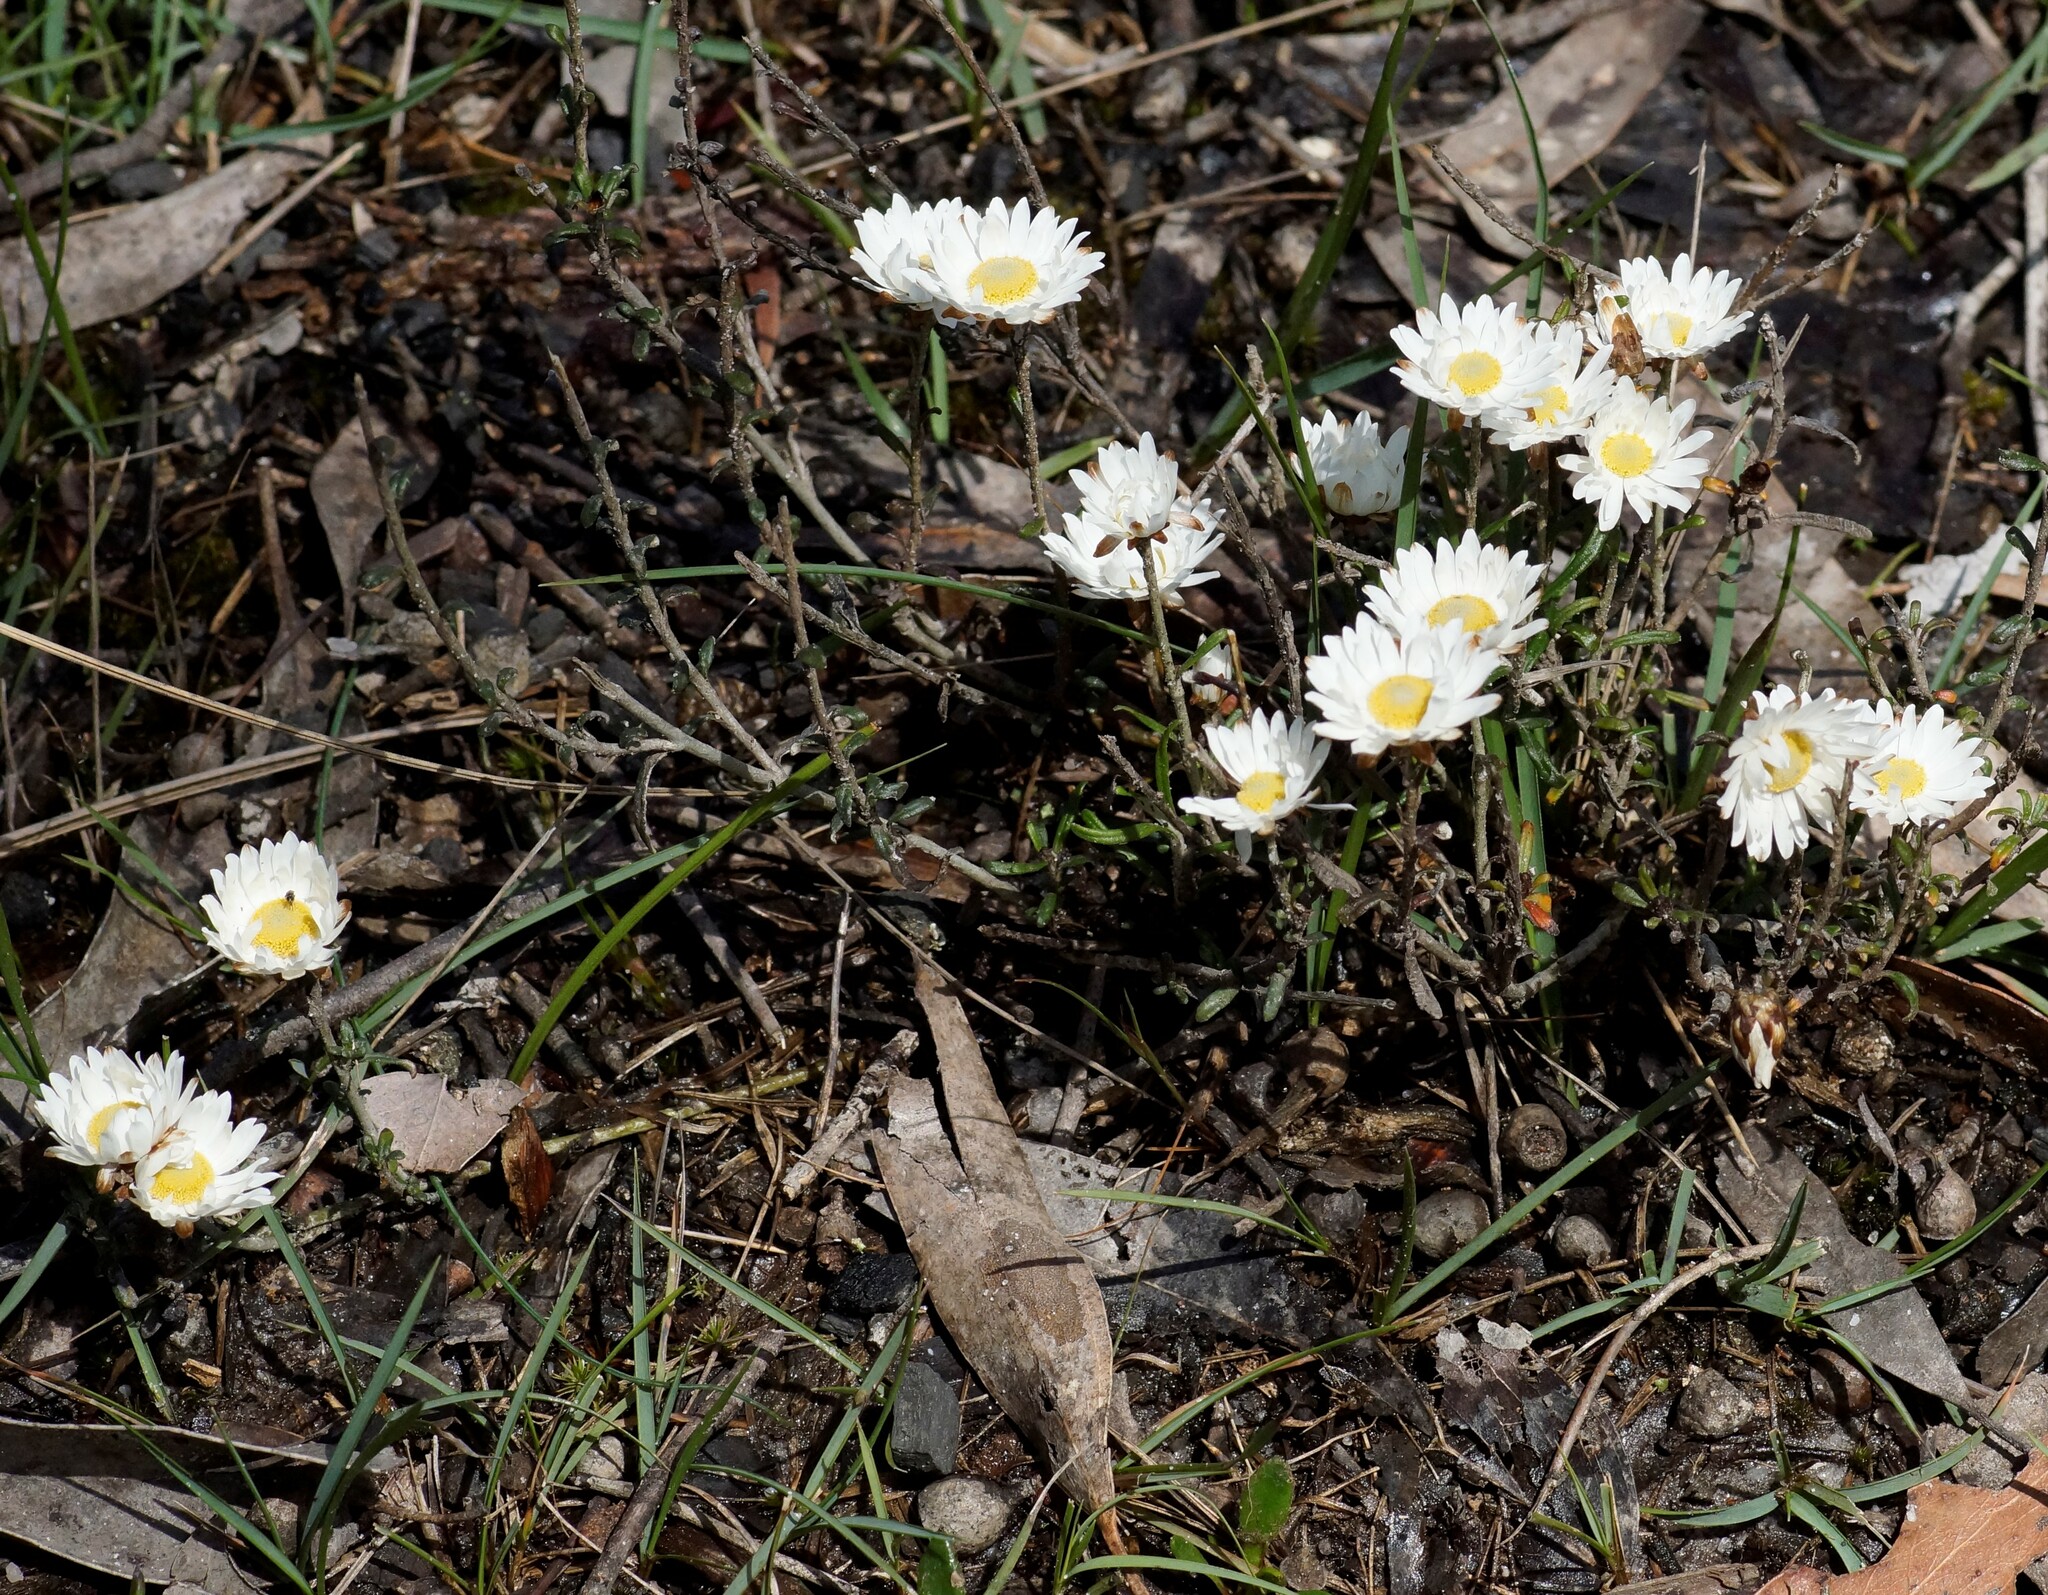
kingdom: Plantae
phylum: Tracheophyta
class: Magnoliopsida
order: Asterales
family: Asteraceae
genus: Argentipallium
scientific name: Argentipallium obtusifolium
